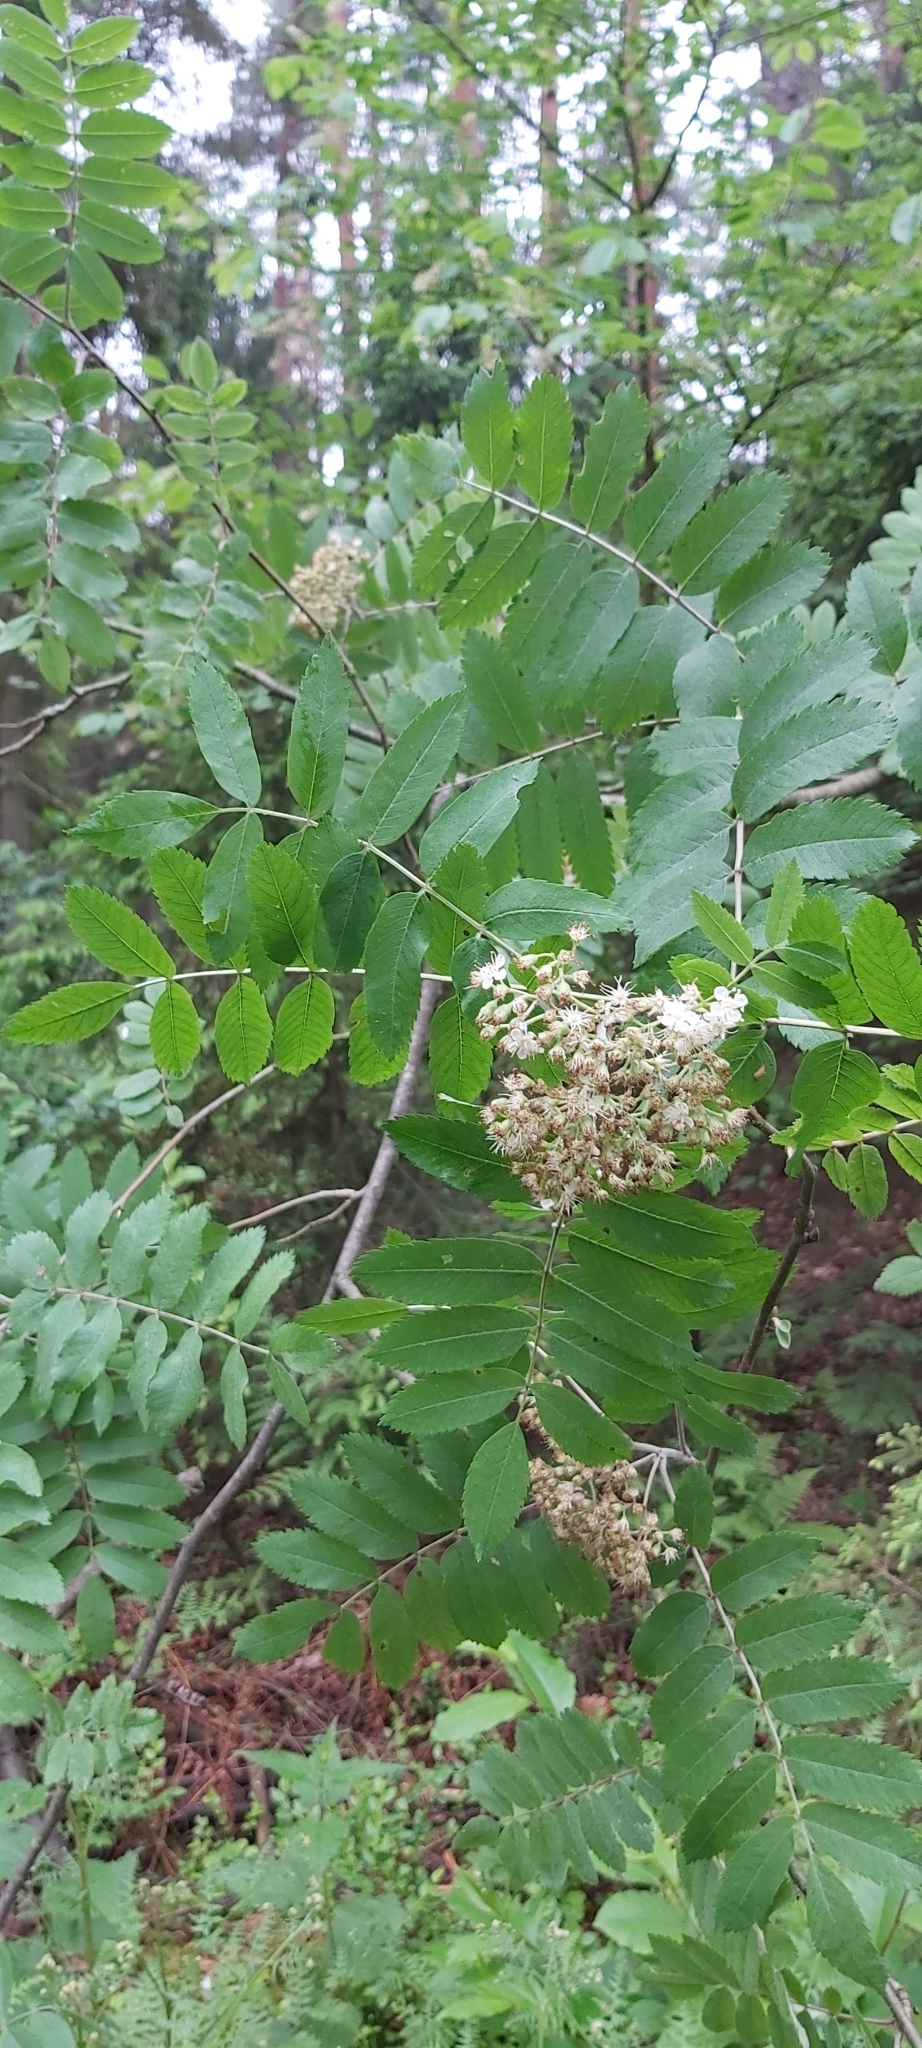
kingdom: Plantae
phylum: Tracheophyta
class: Magnoliopsida
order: Rosales
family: Rosaceae
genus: Sorbus
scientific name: Sorbus aucuparia
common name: Rowan
